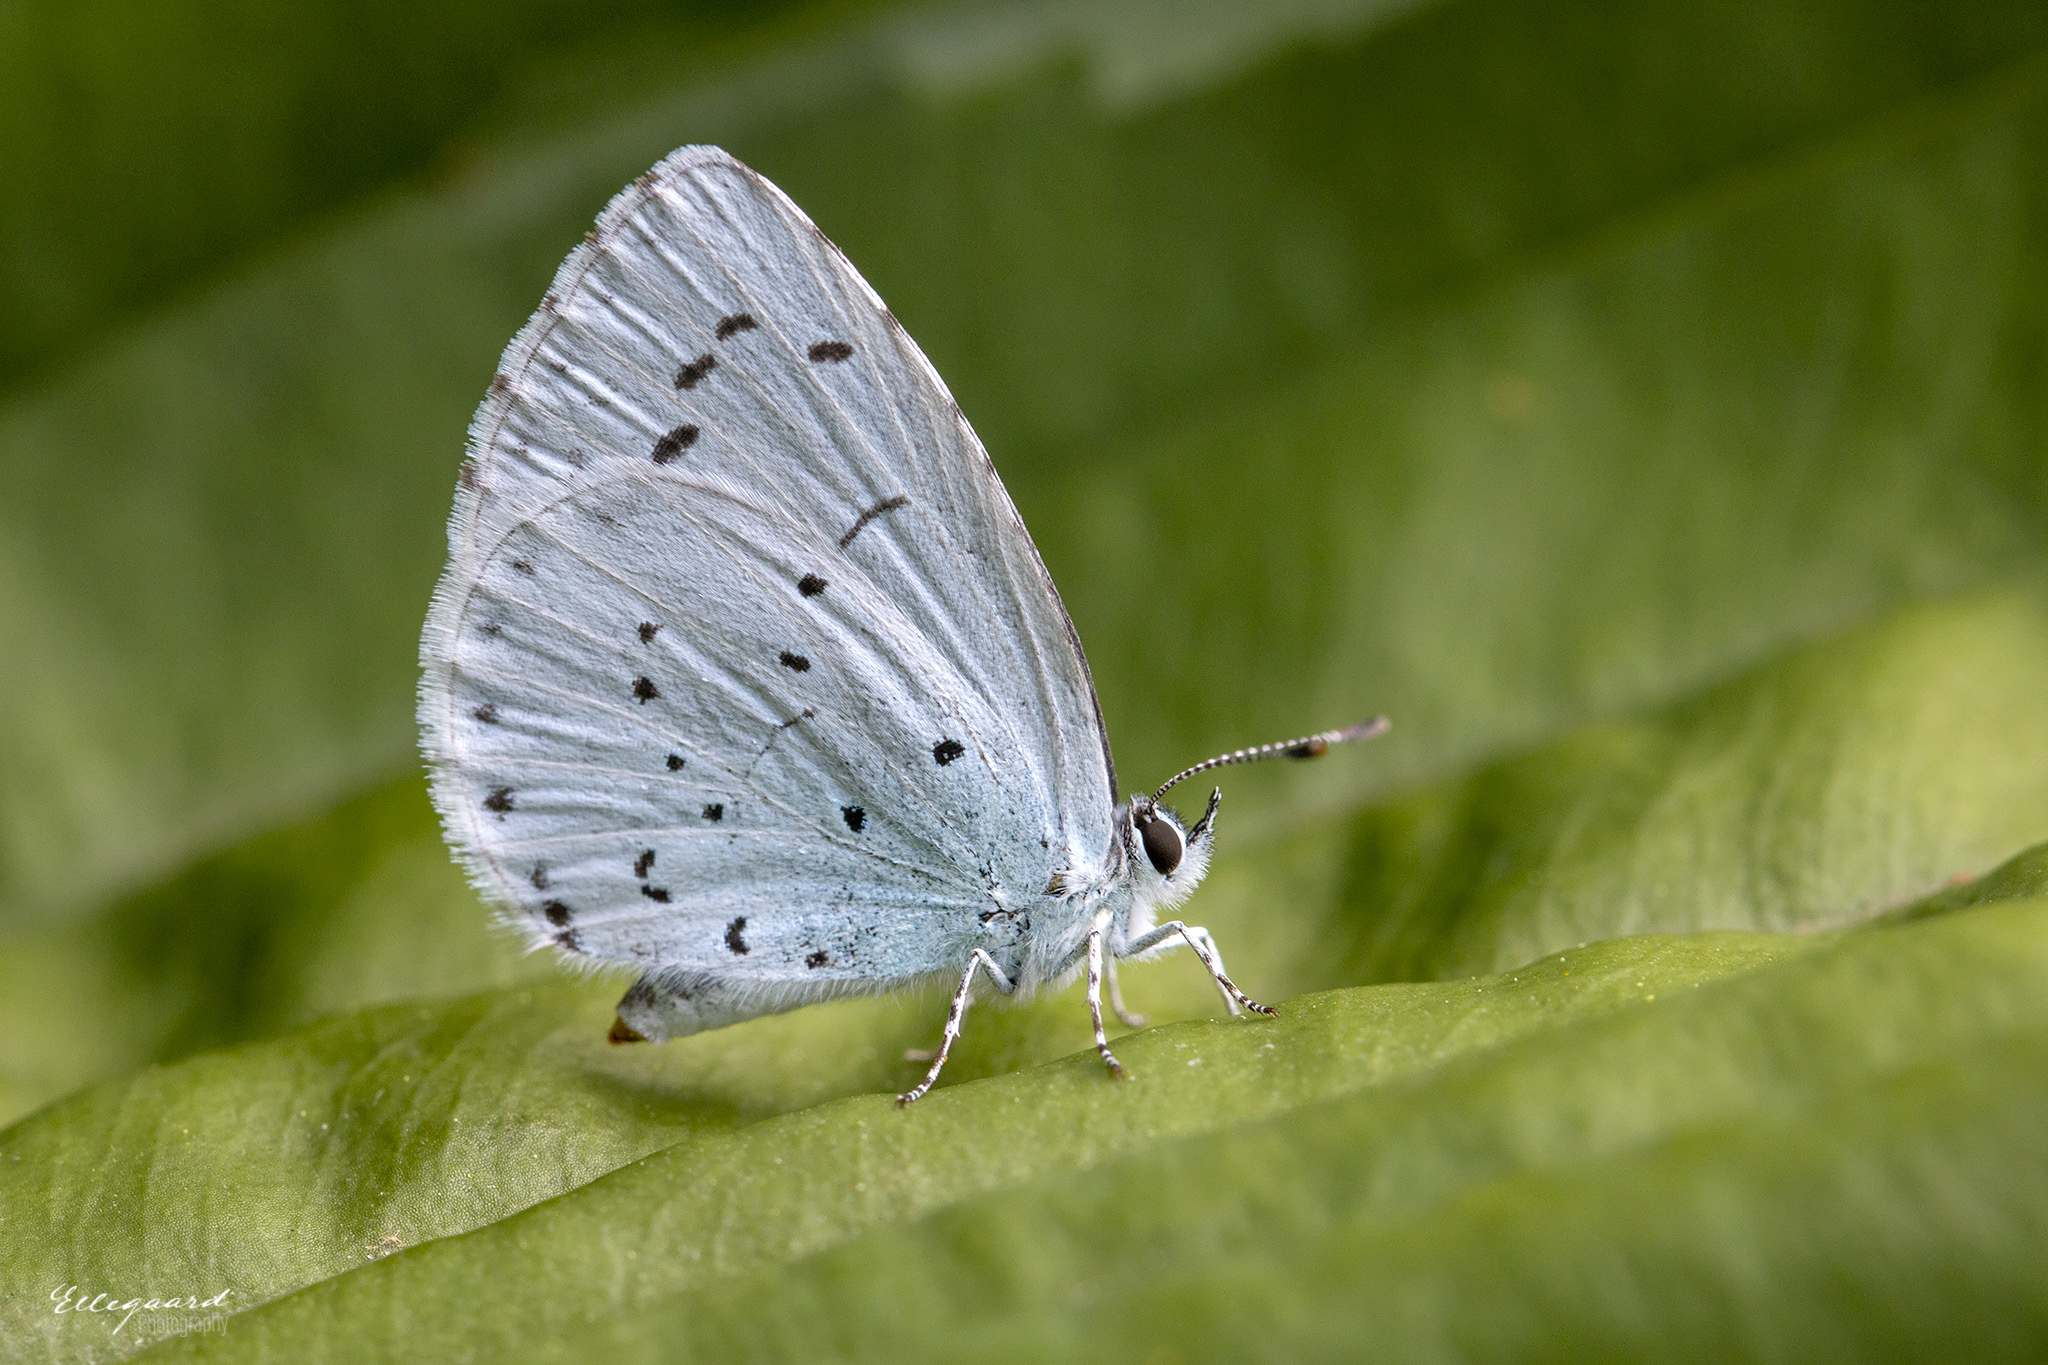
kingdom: Animalia
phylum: Arthropoda
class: Insecta
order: Lepidoptera
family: Lycaenidae
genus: Celastrina
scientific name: Celastrina argiolus
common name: Holly blue
